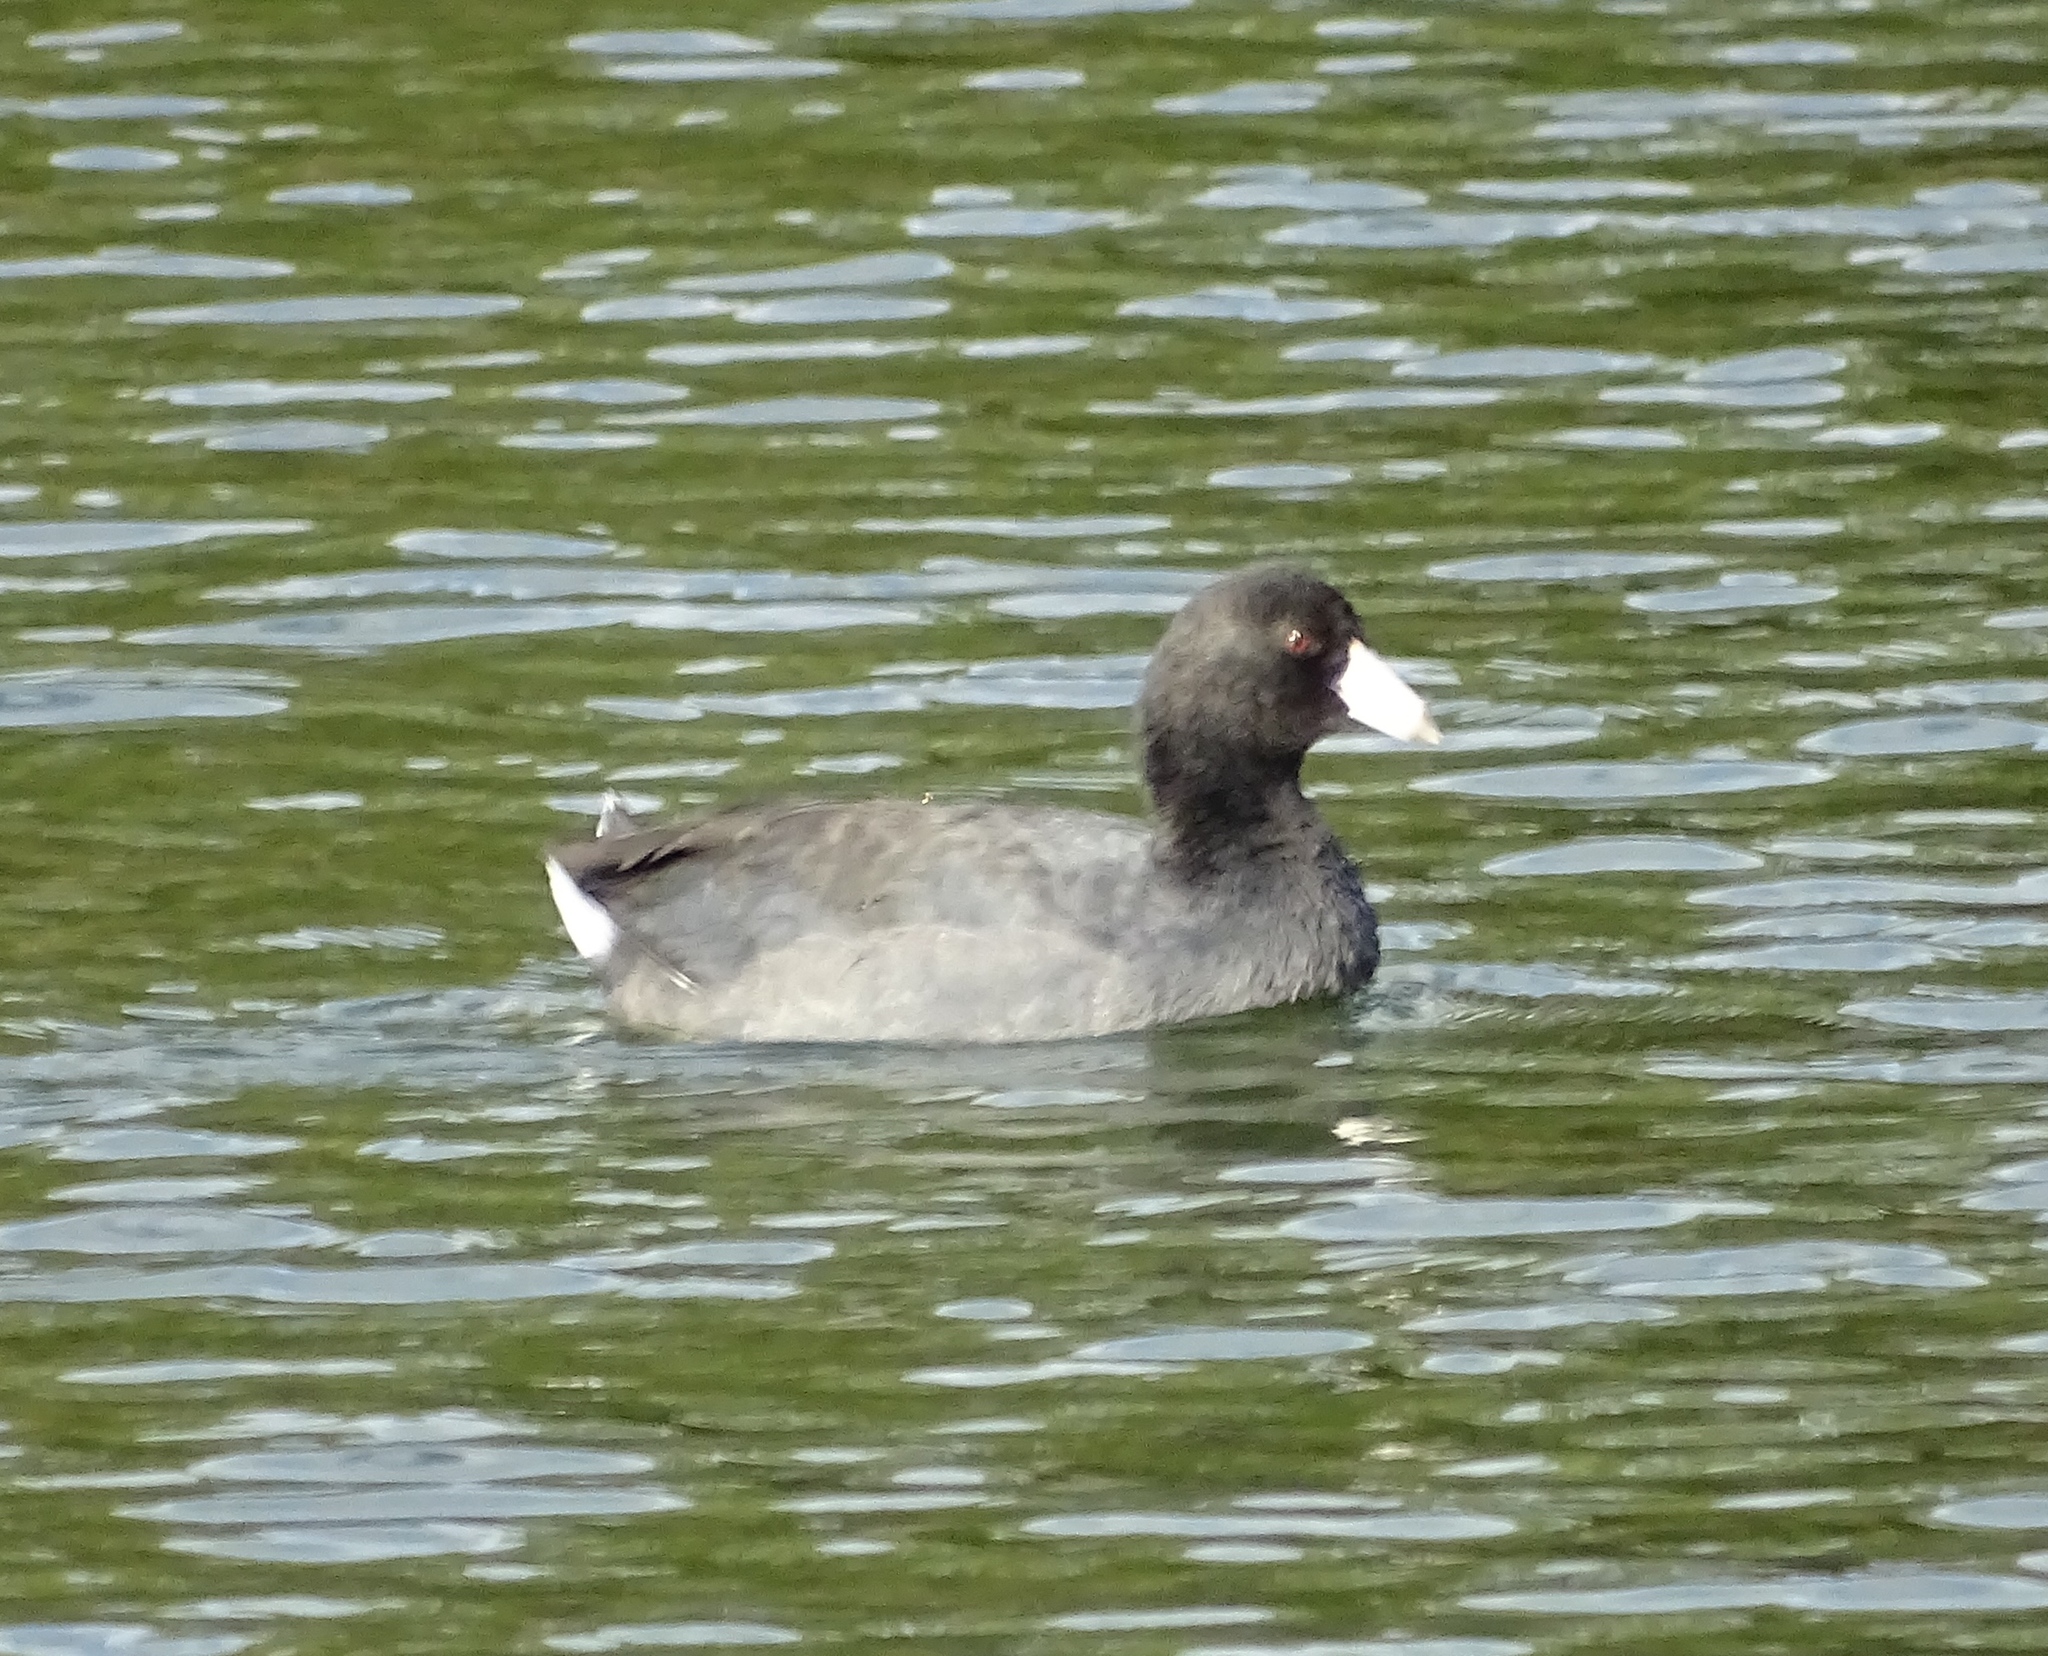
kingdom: Animalia
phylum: Chordata
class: Aves
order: Gruiformes
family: Rallidae
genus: Fulica
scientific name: Fulica americana
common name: American coot
